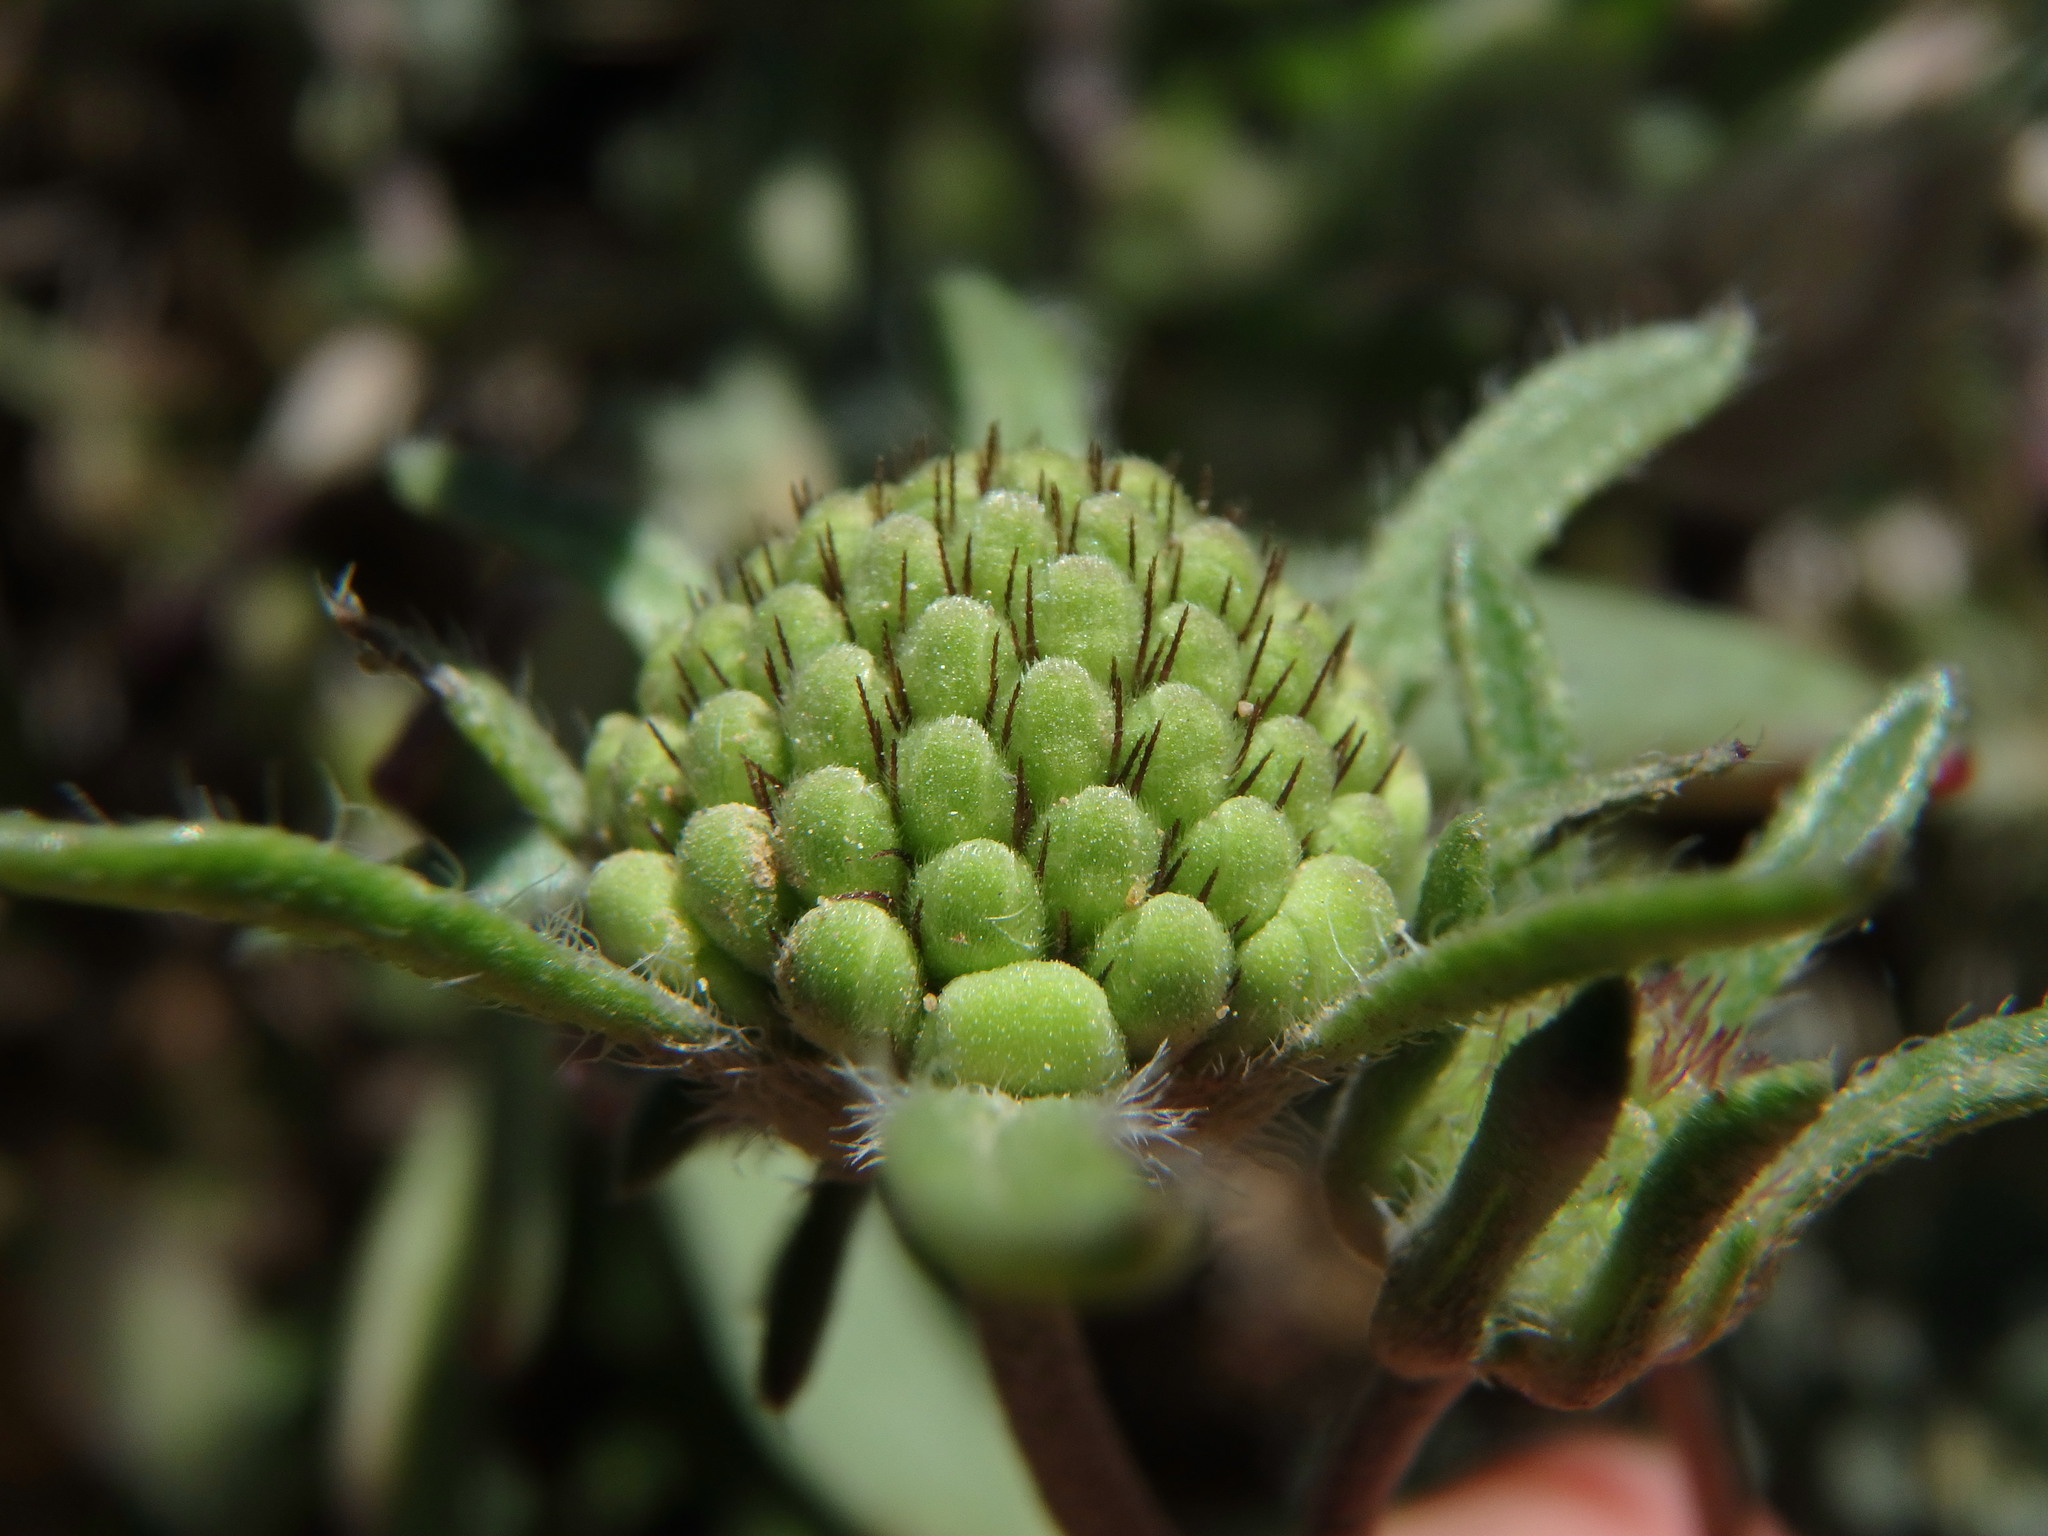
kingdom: Plantae
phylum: Tracheophyta
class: Magnoliopsida
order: Dipsacales
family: Caprifoliaceae
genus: Sixalix
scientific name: Sixalix atropurpurea
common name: Sweet scabious
